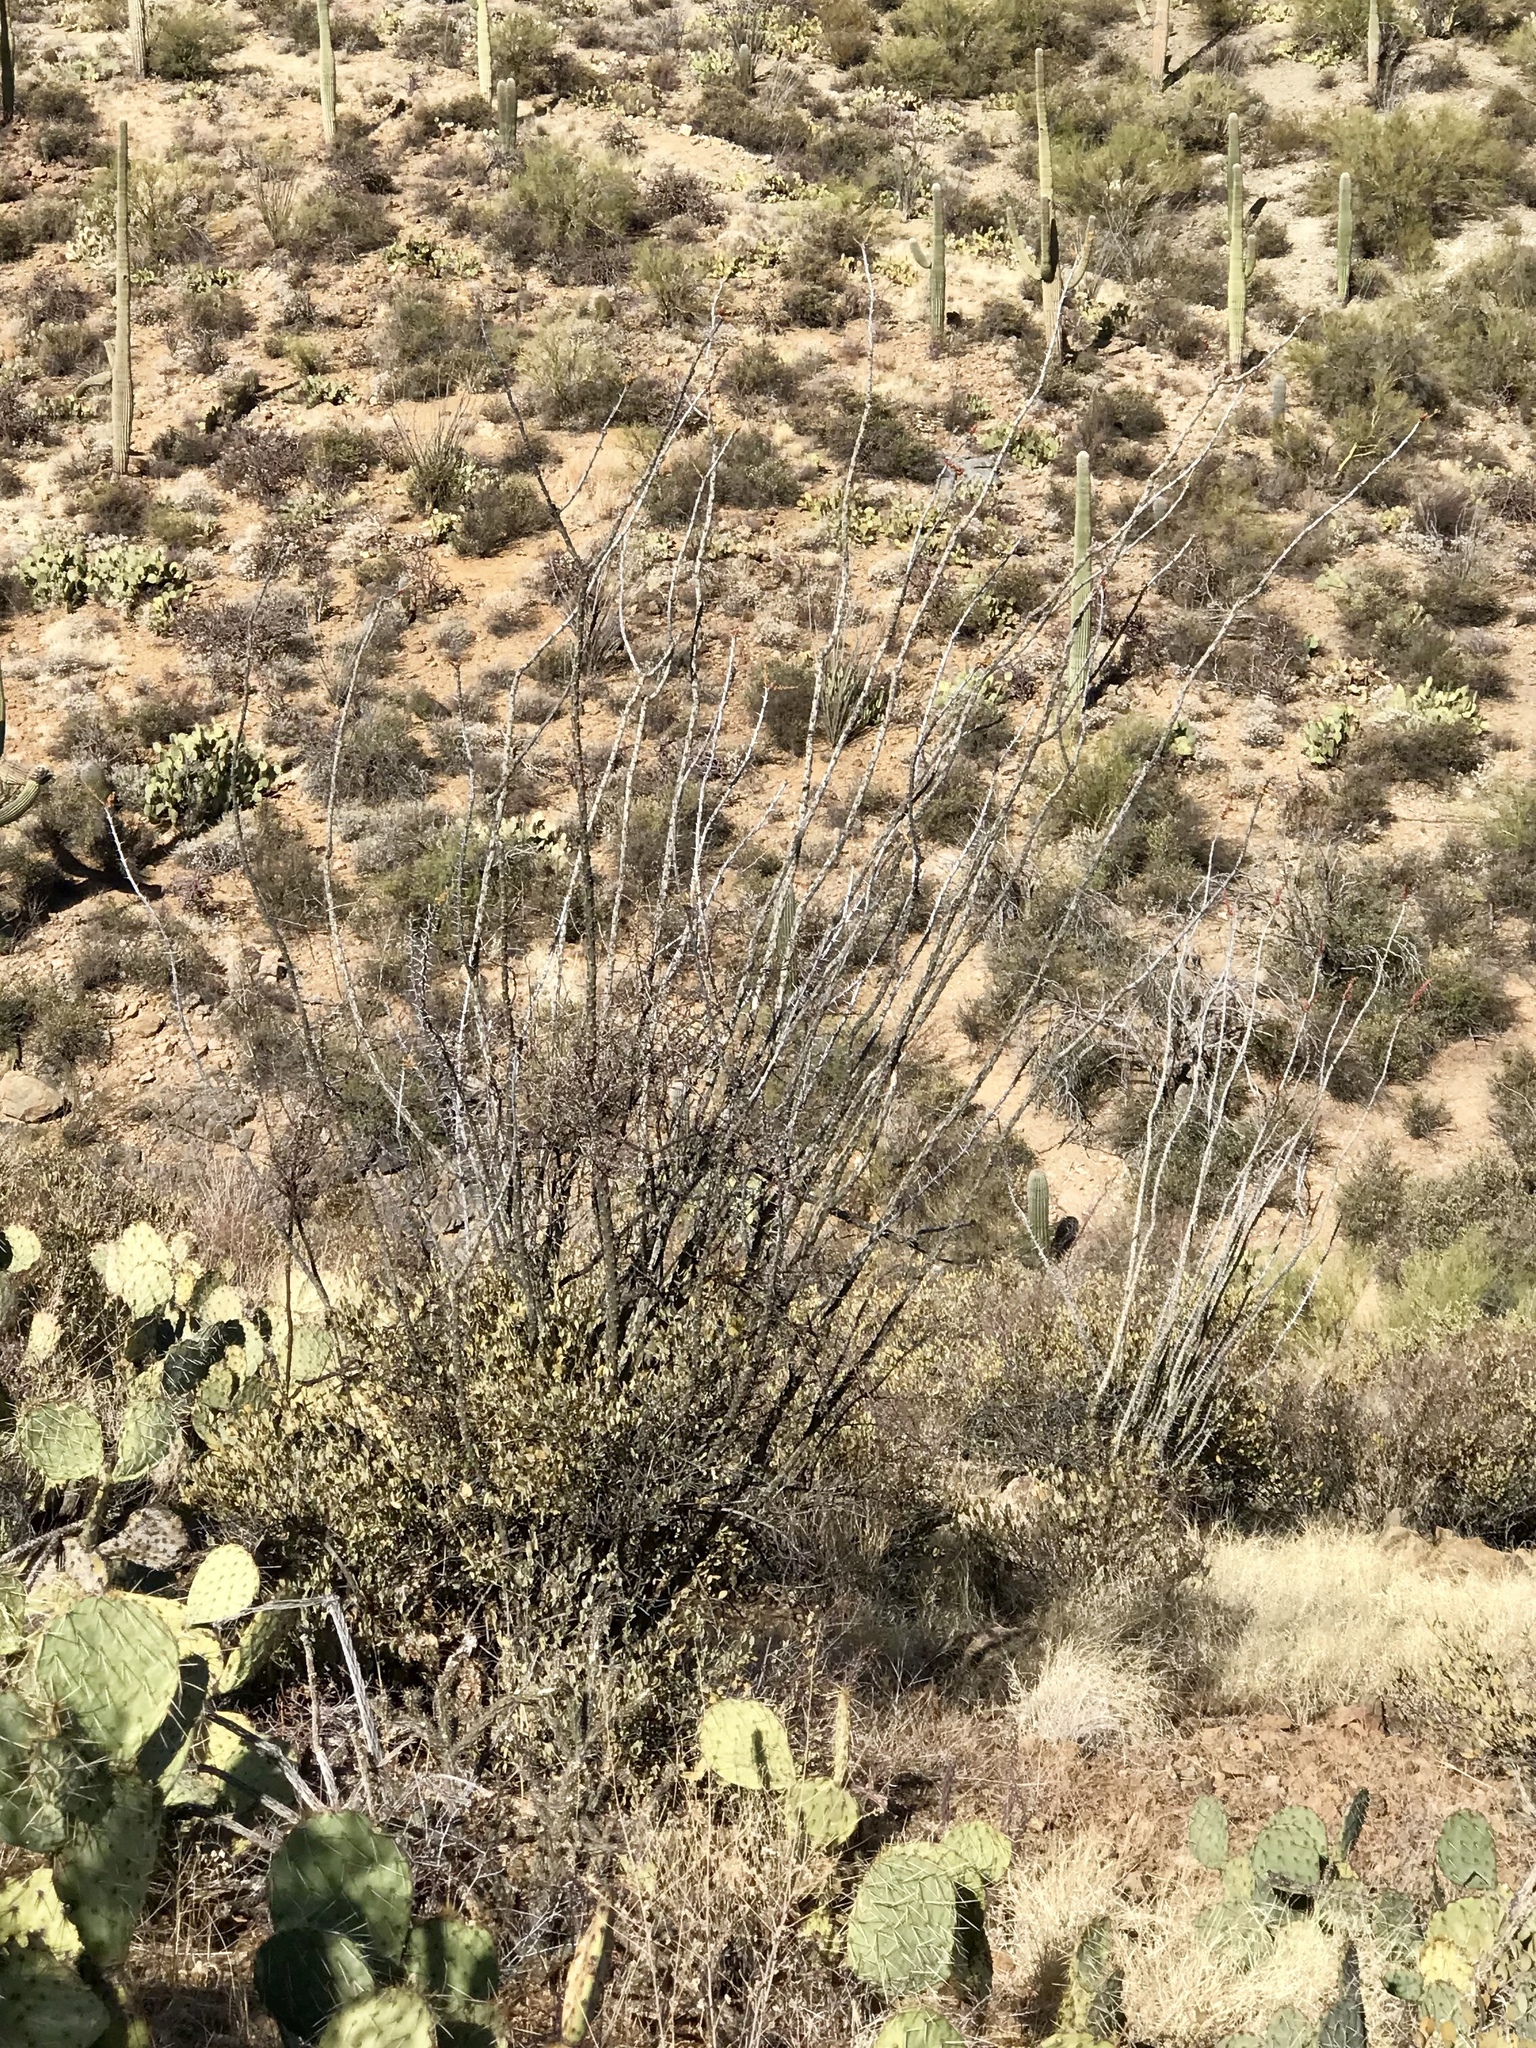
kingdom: Plantae
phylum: Tracheophyta
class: Magnoliopsida
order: Ericales
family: Fouquieriaceae
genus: Fouquieria
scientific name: Fouquieria splendens
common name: Vine-cactus
